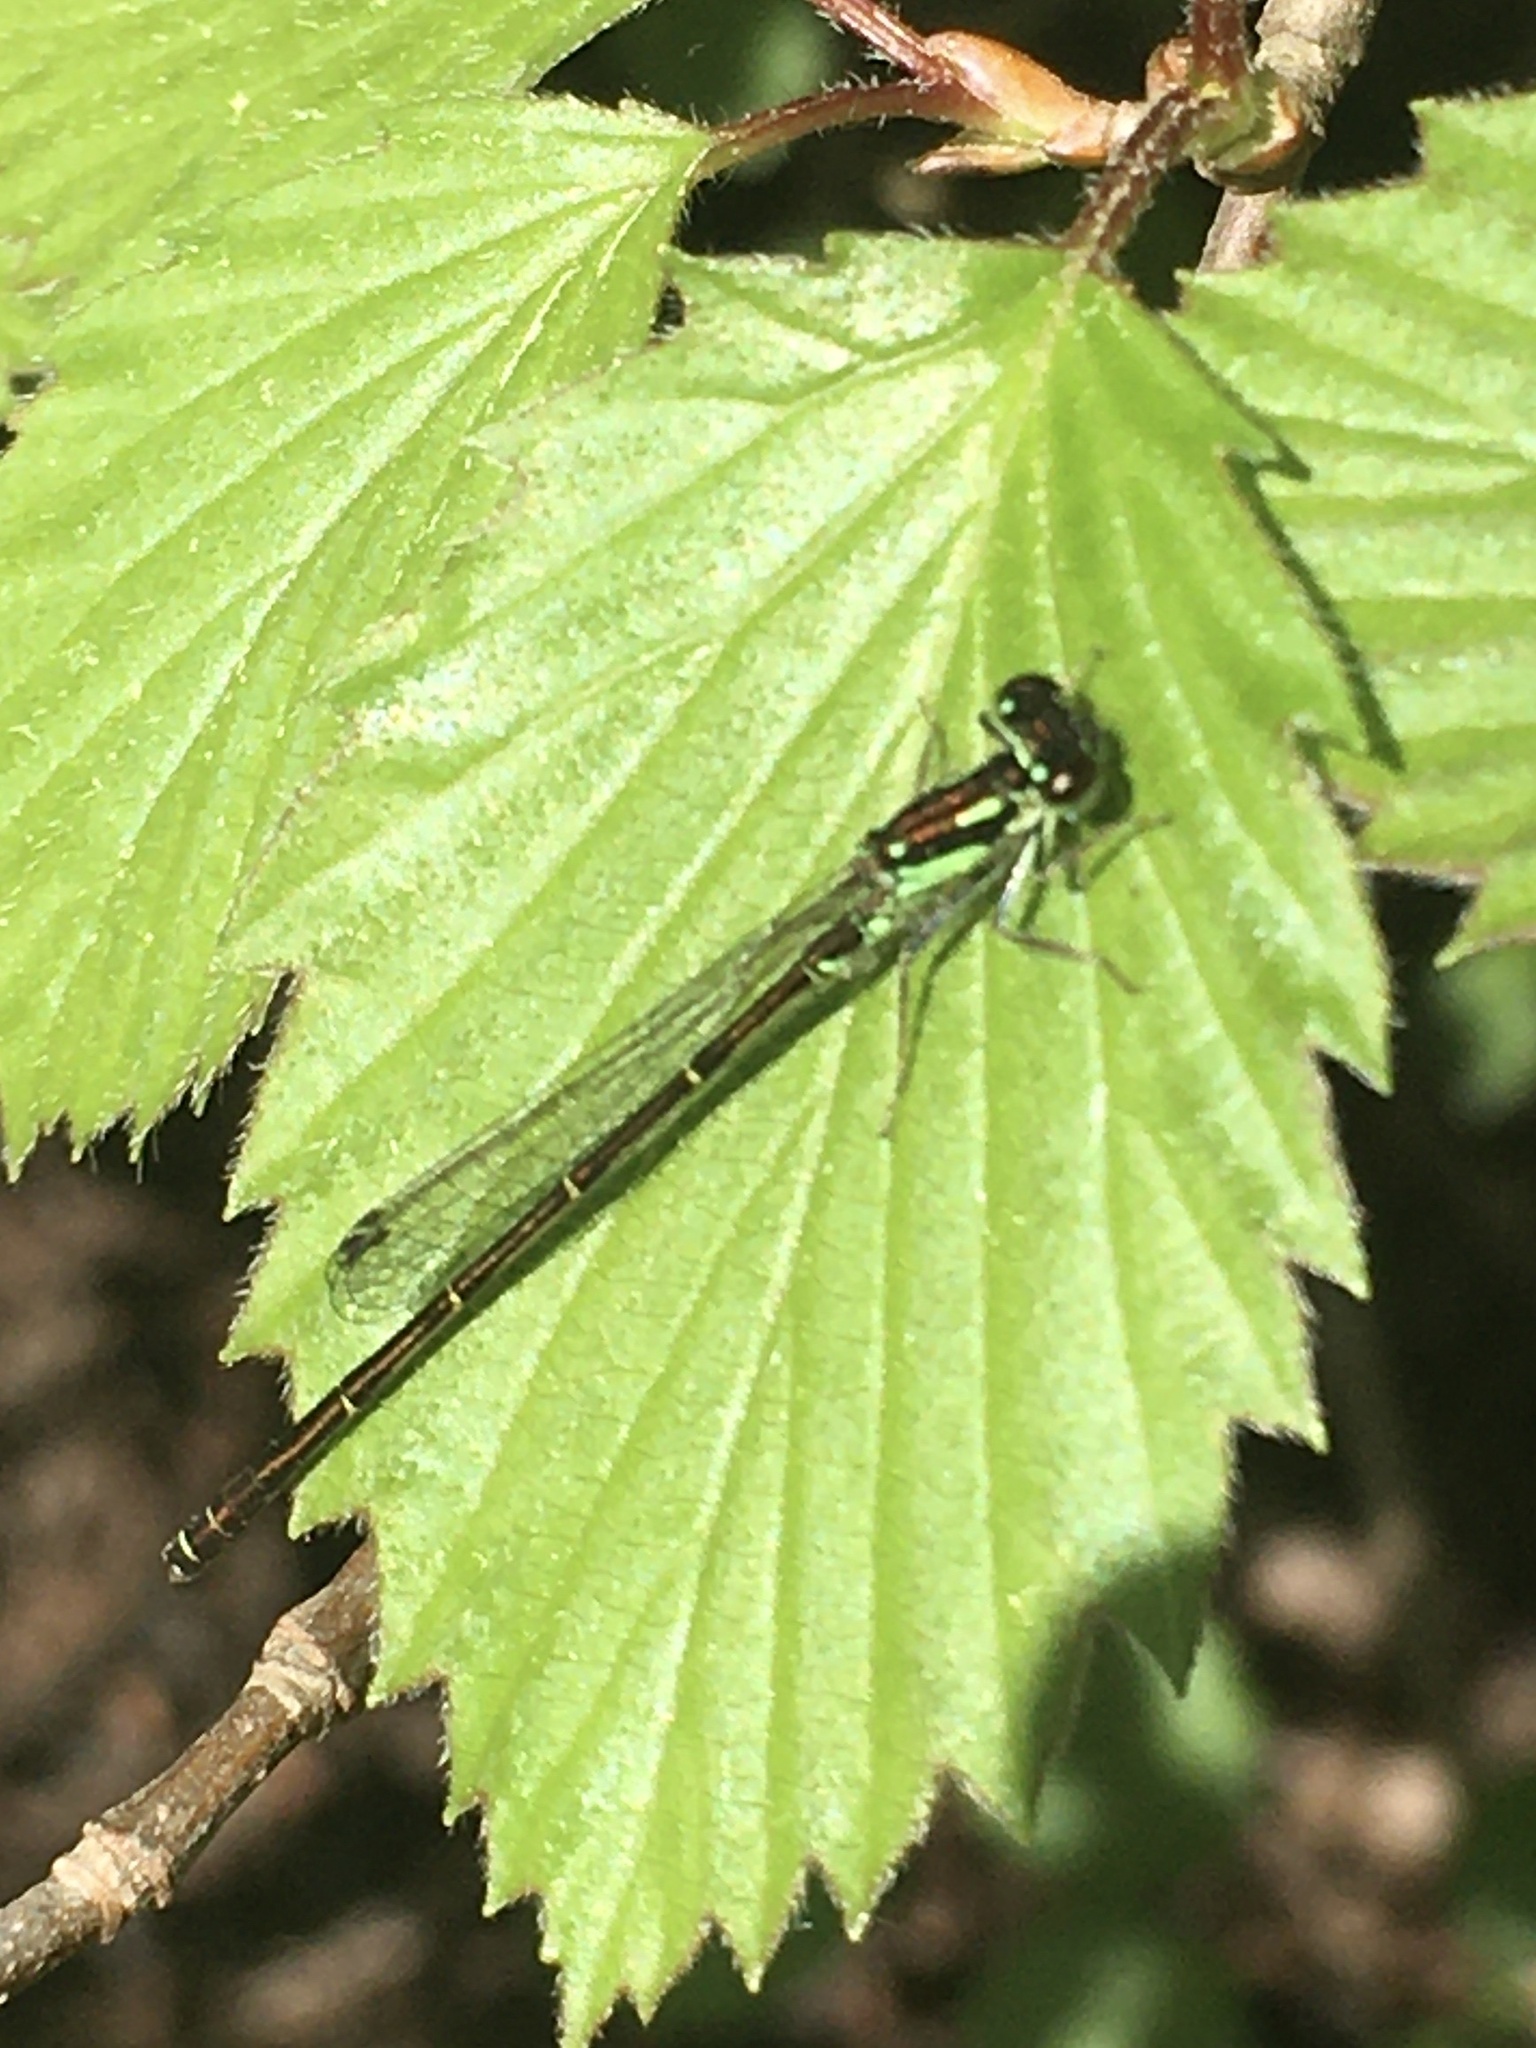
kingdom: Animalia
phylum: Arthropoda
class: Insecta
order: Odonata
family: Coenagrionidae
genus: Ischnura
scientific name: Ischnura posita
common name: Fragile forktail
